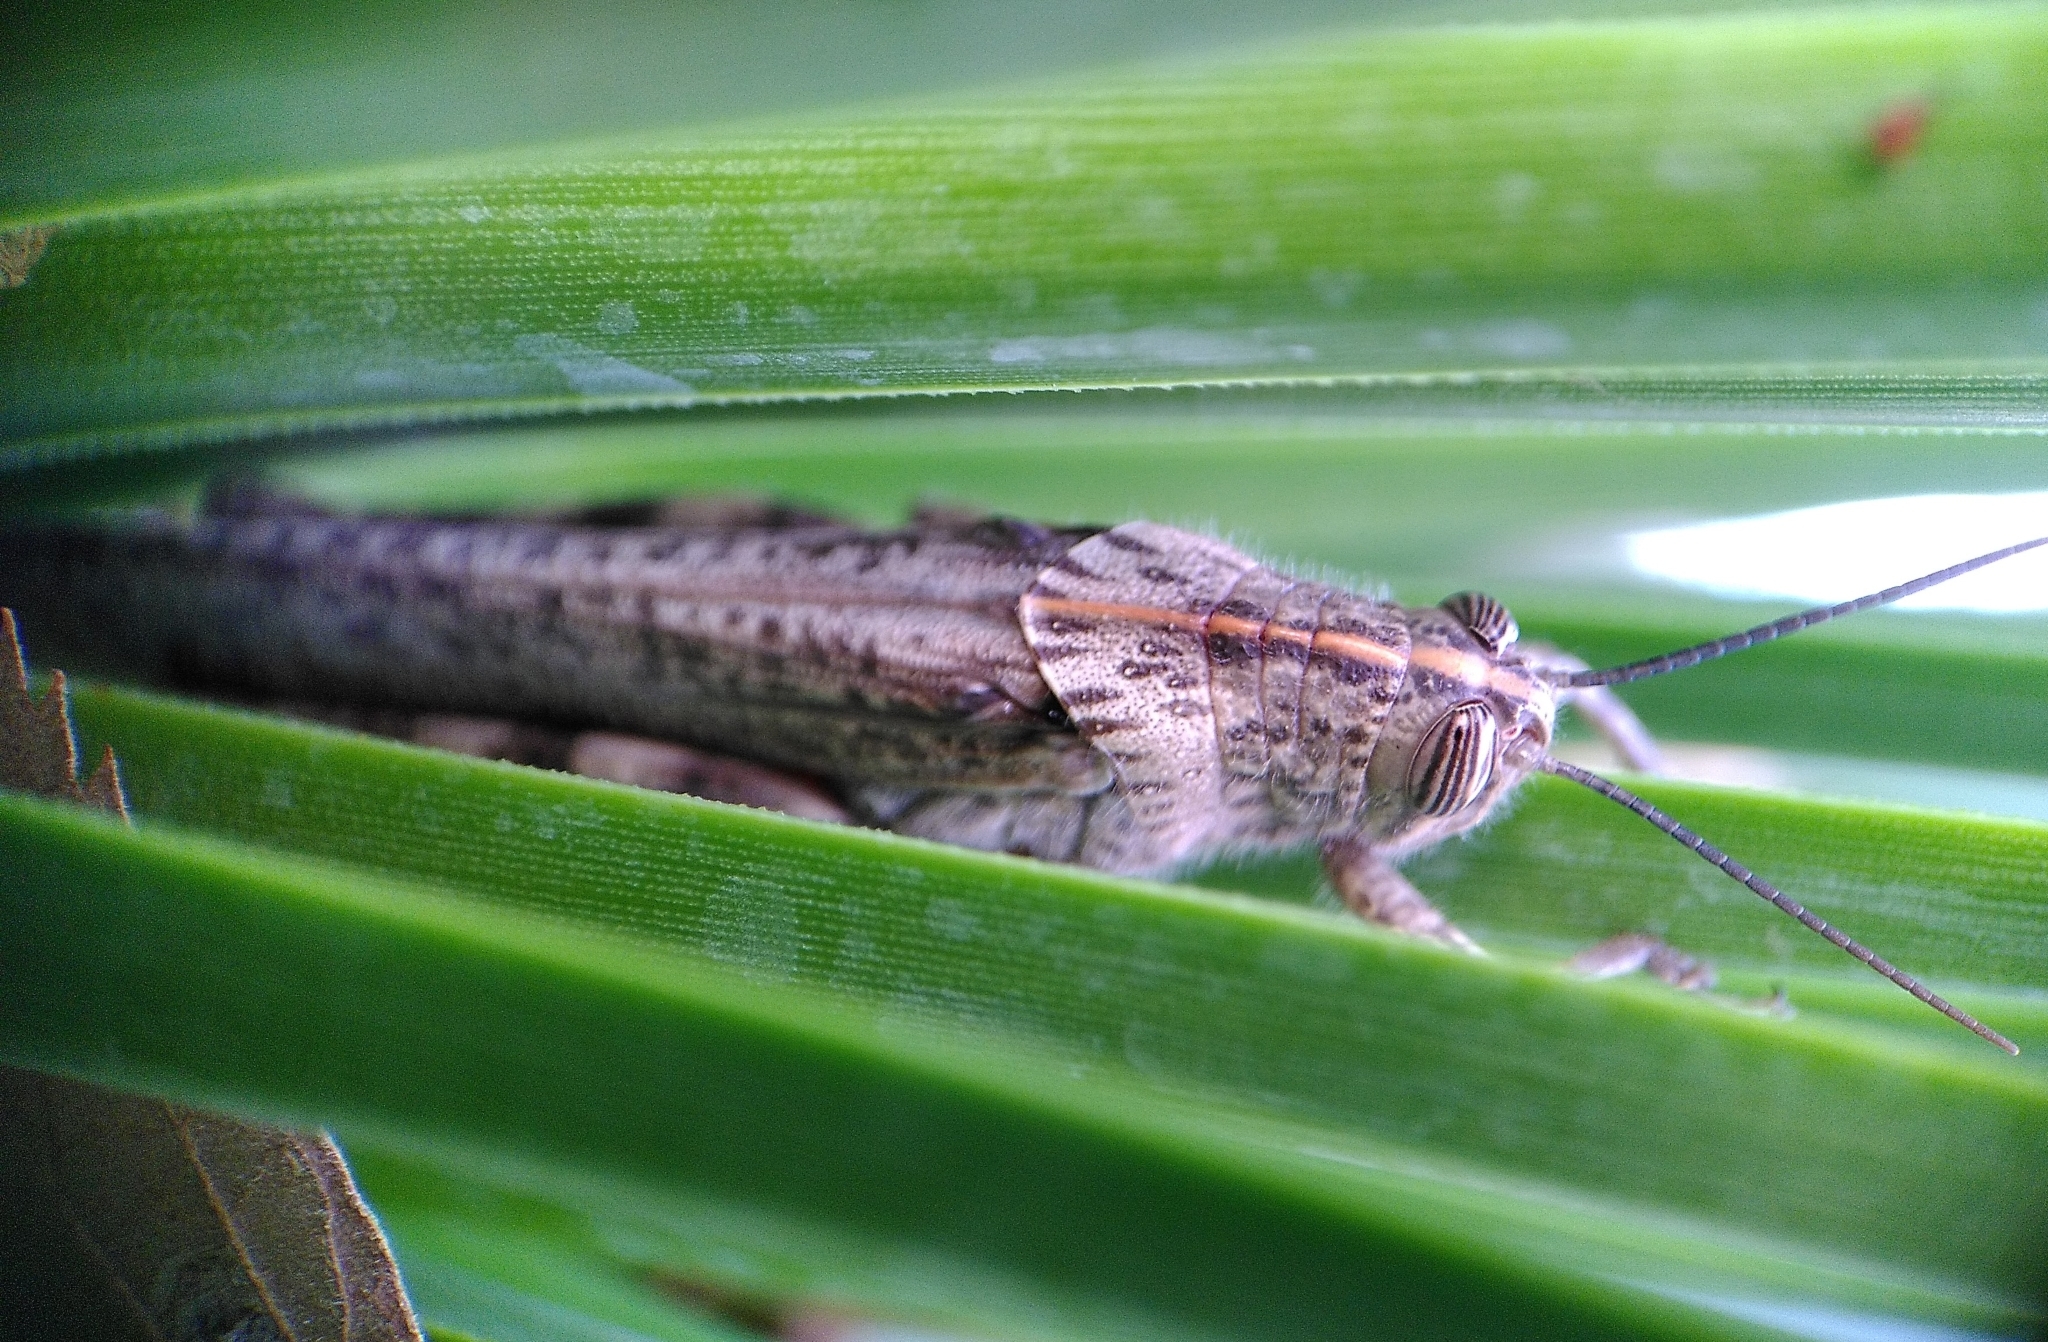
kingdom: Animalia
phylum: Arthropoda
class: Insecta
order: Orthoptera
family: Acrididae
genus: Anacridium
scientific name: Anacridium aegyptium
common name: Egyptian grasshopper
